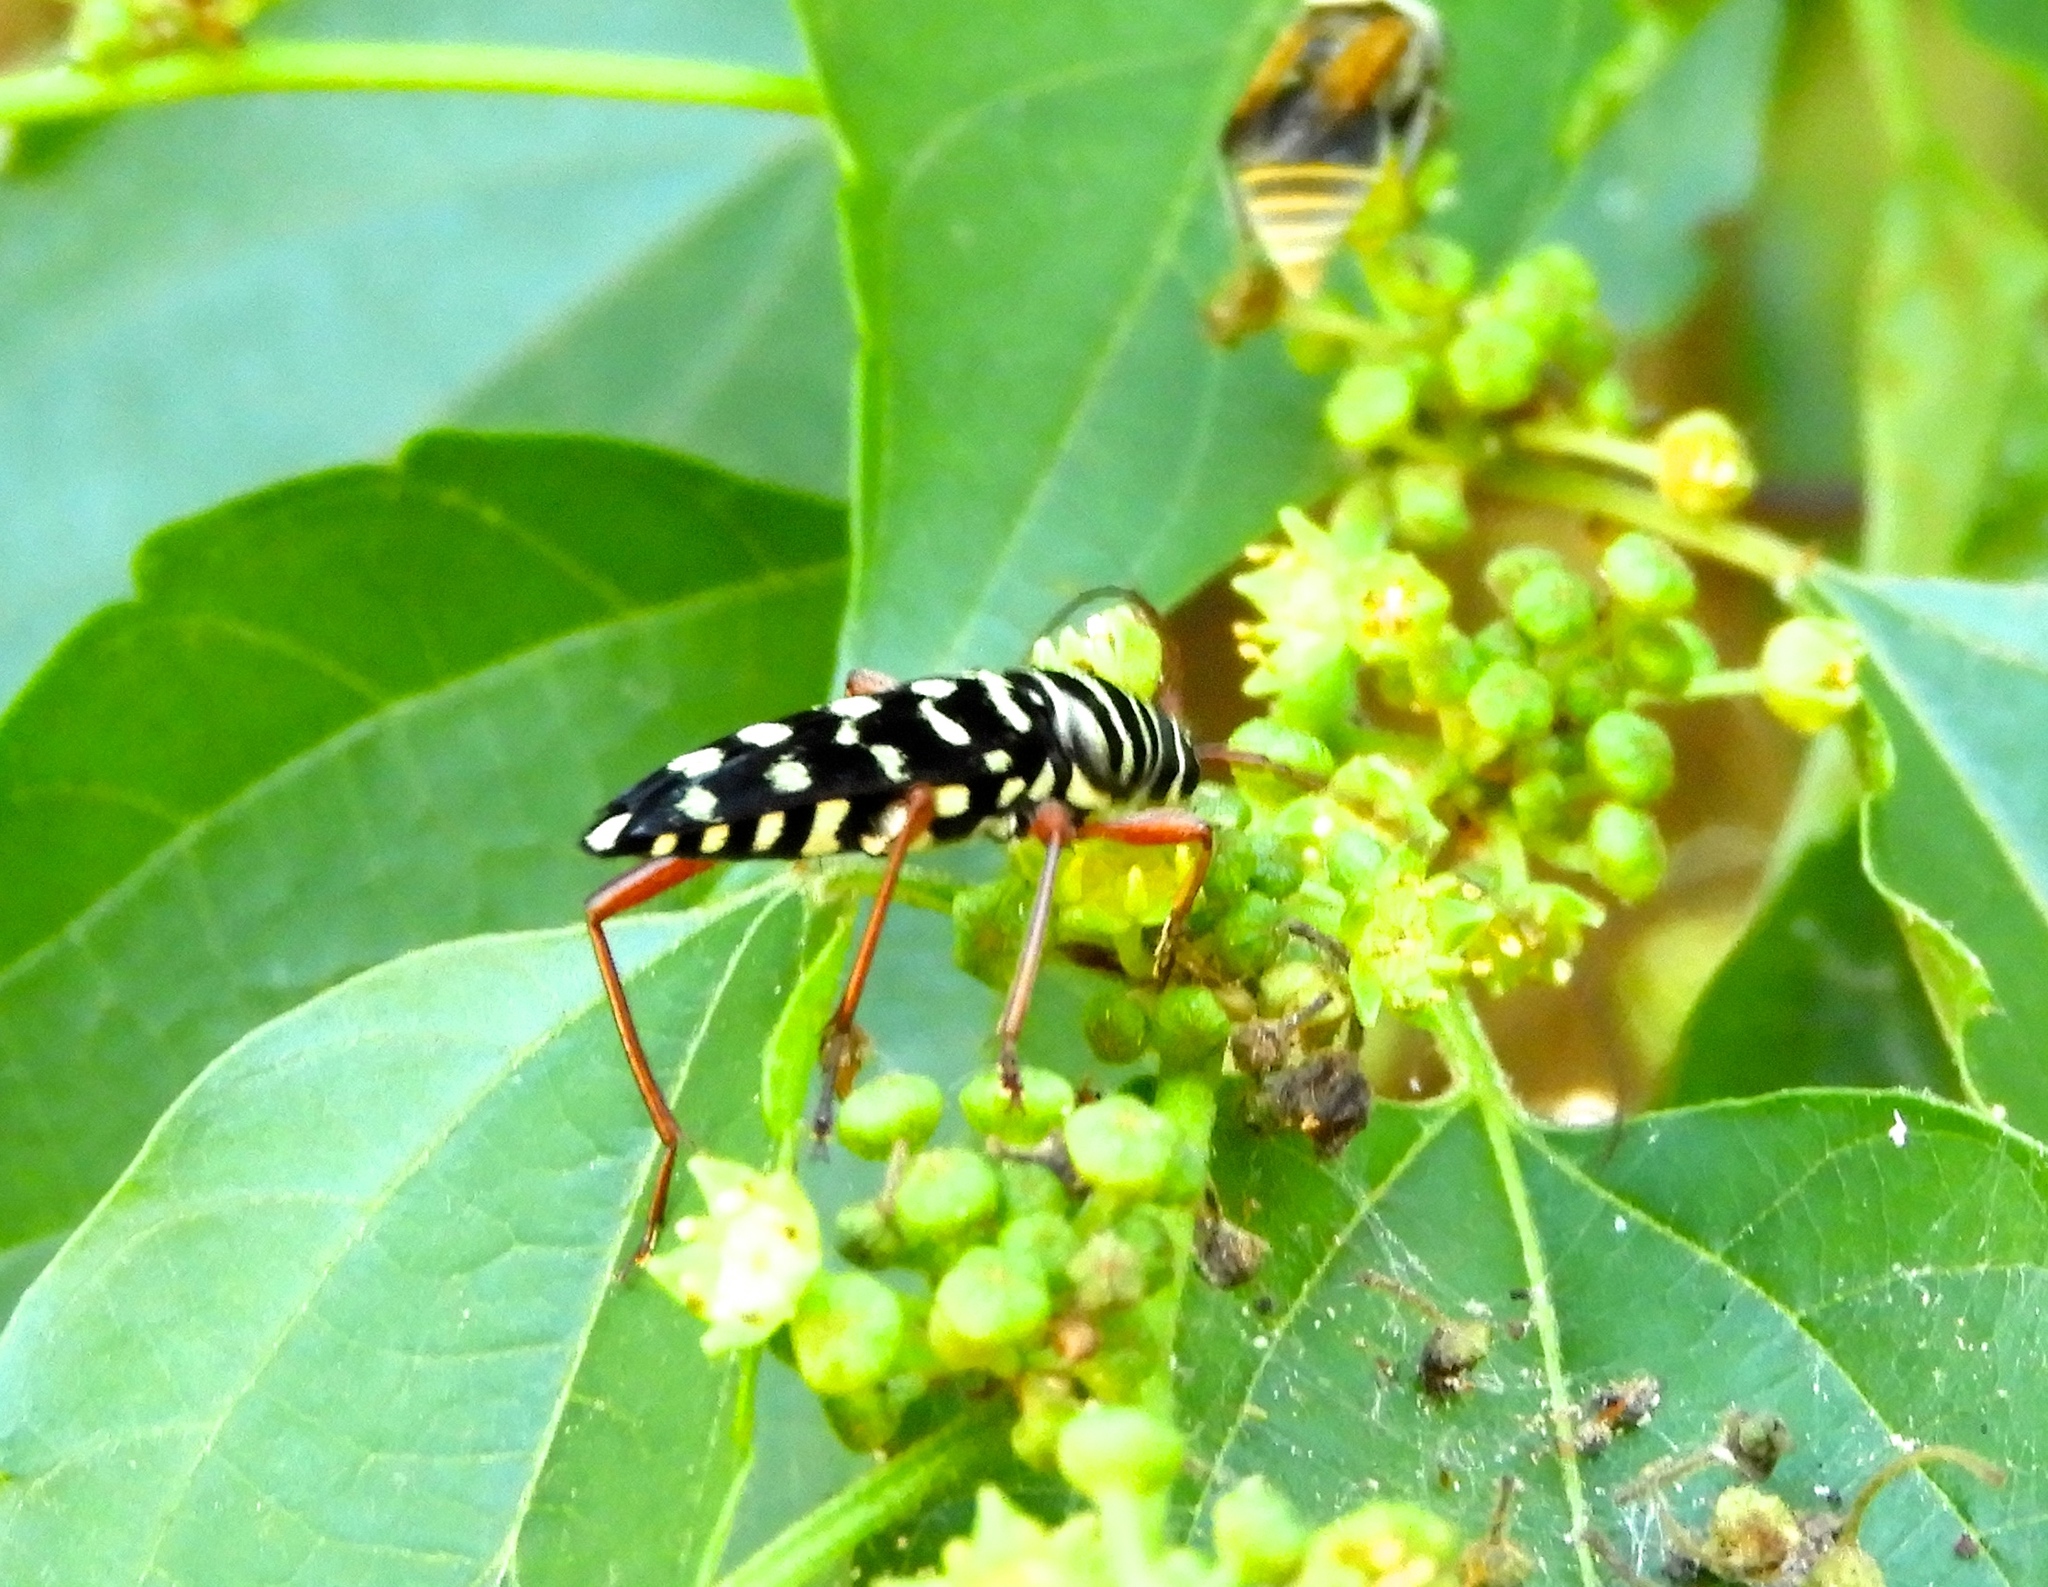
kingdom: Animalia
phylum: Arthropoda
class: Insecta
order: Coleoptera
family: Cerambycidae
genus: Placosternus
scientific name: Placosternus erythropus
